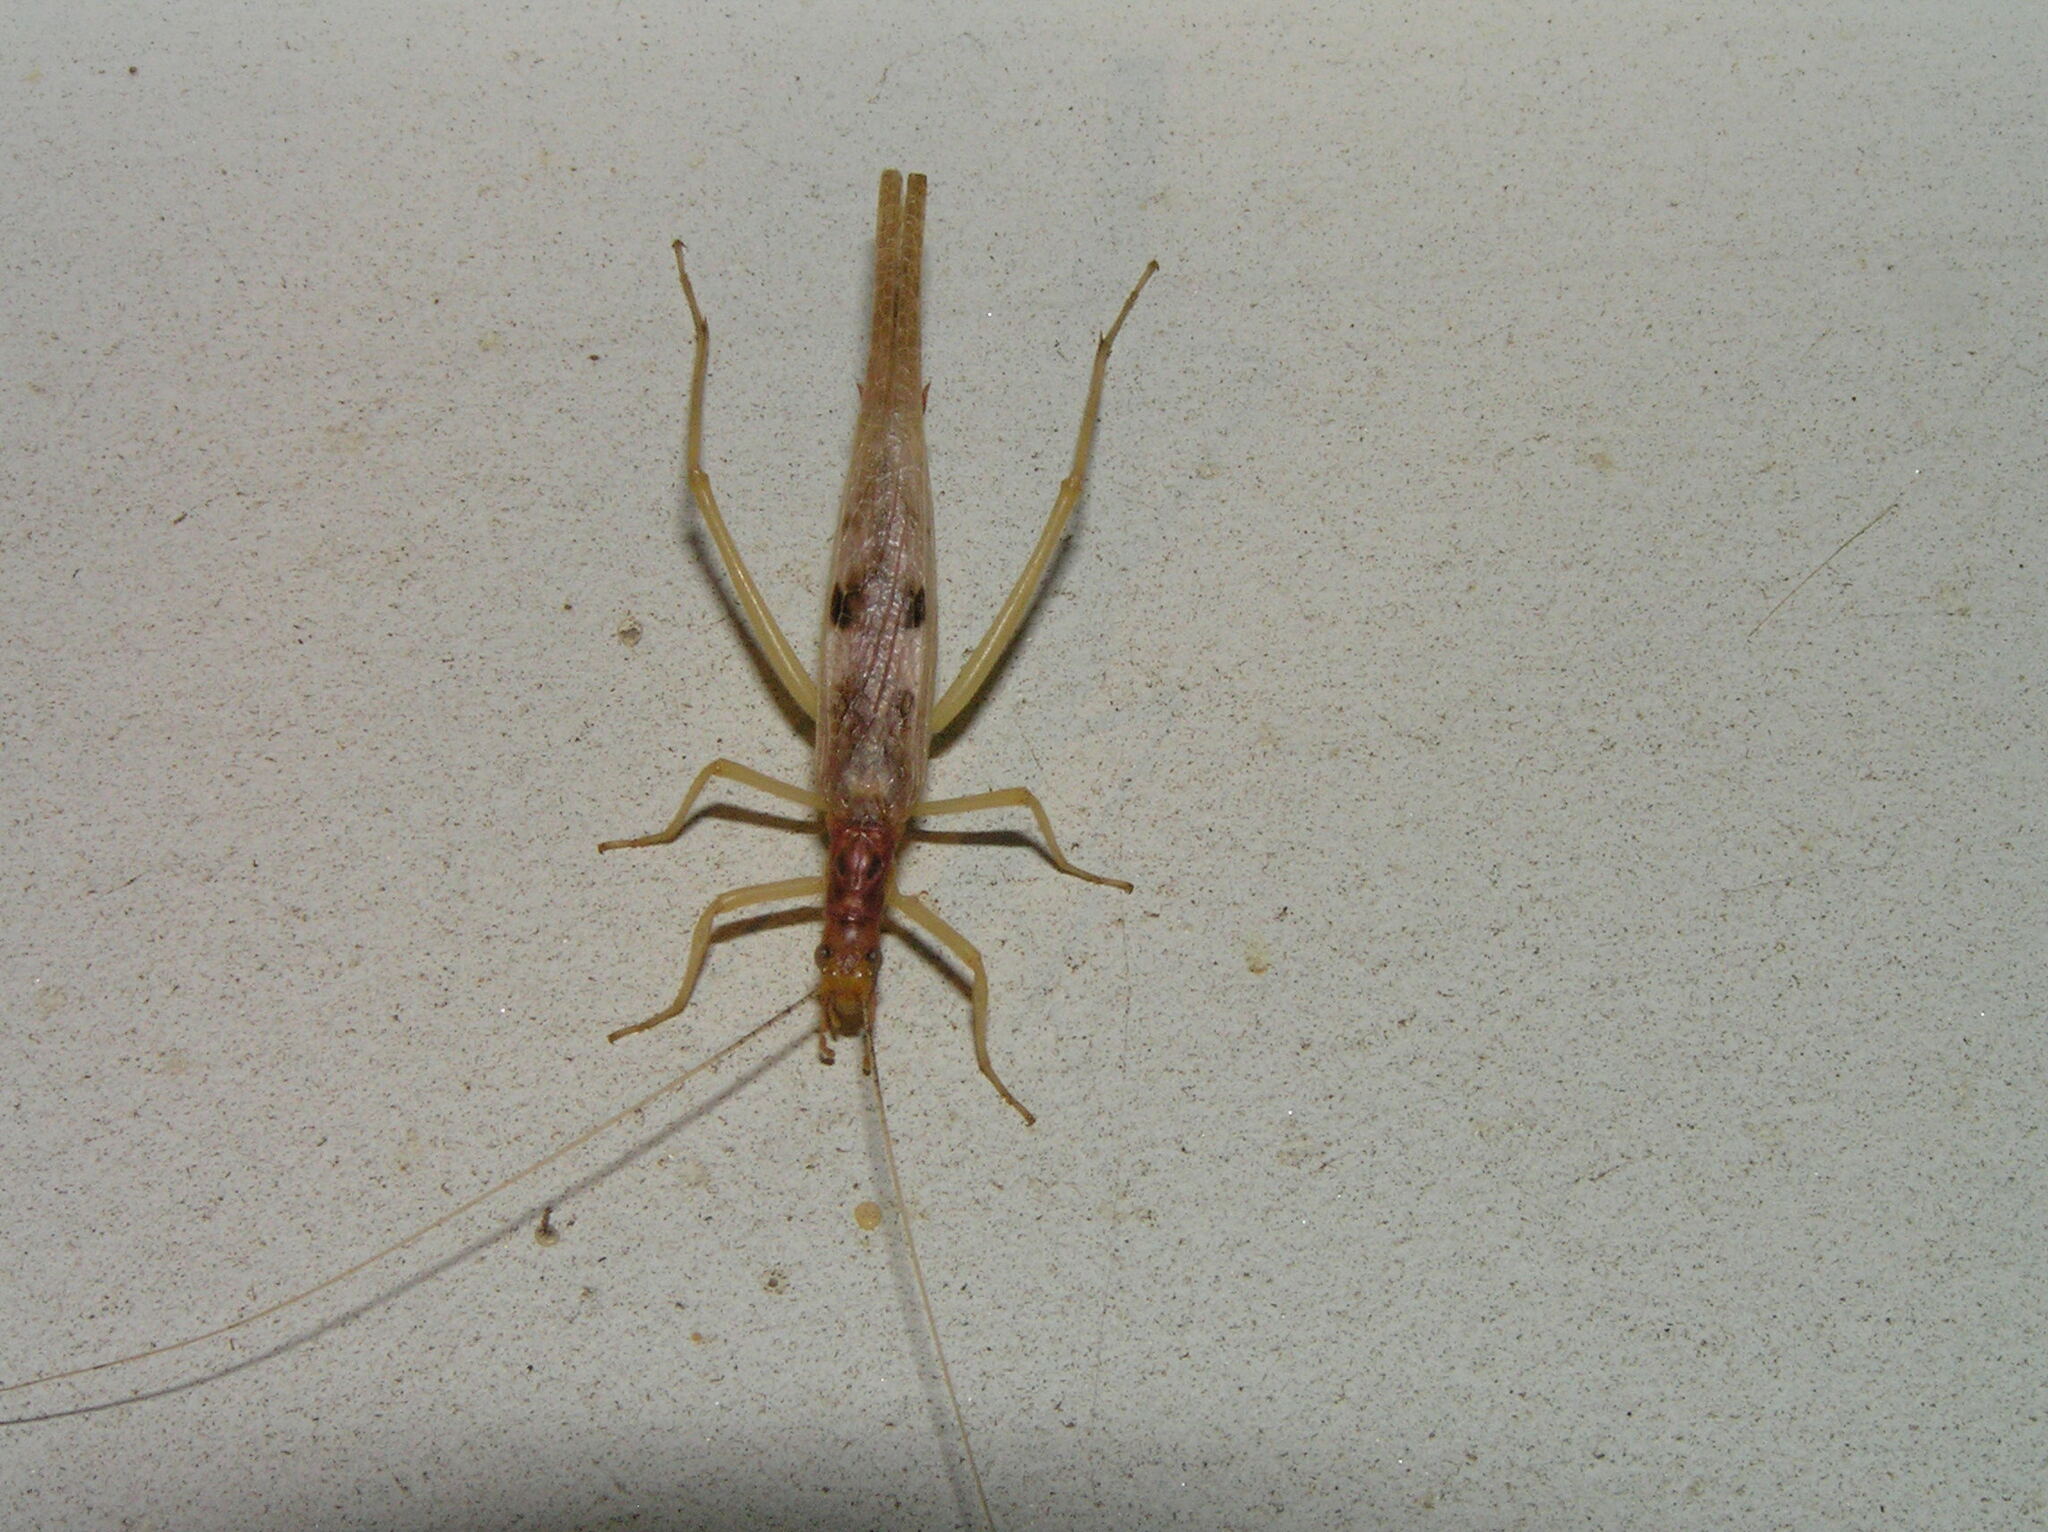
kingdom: Animalia
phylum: Arthropoda
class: Insecta
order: Orthoptera
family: Gryllidae
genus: Neoxabea
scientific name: Neoxabea bipunctata
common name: Two-spotted tree cricket
